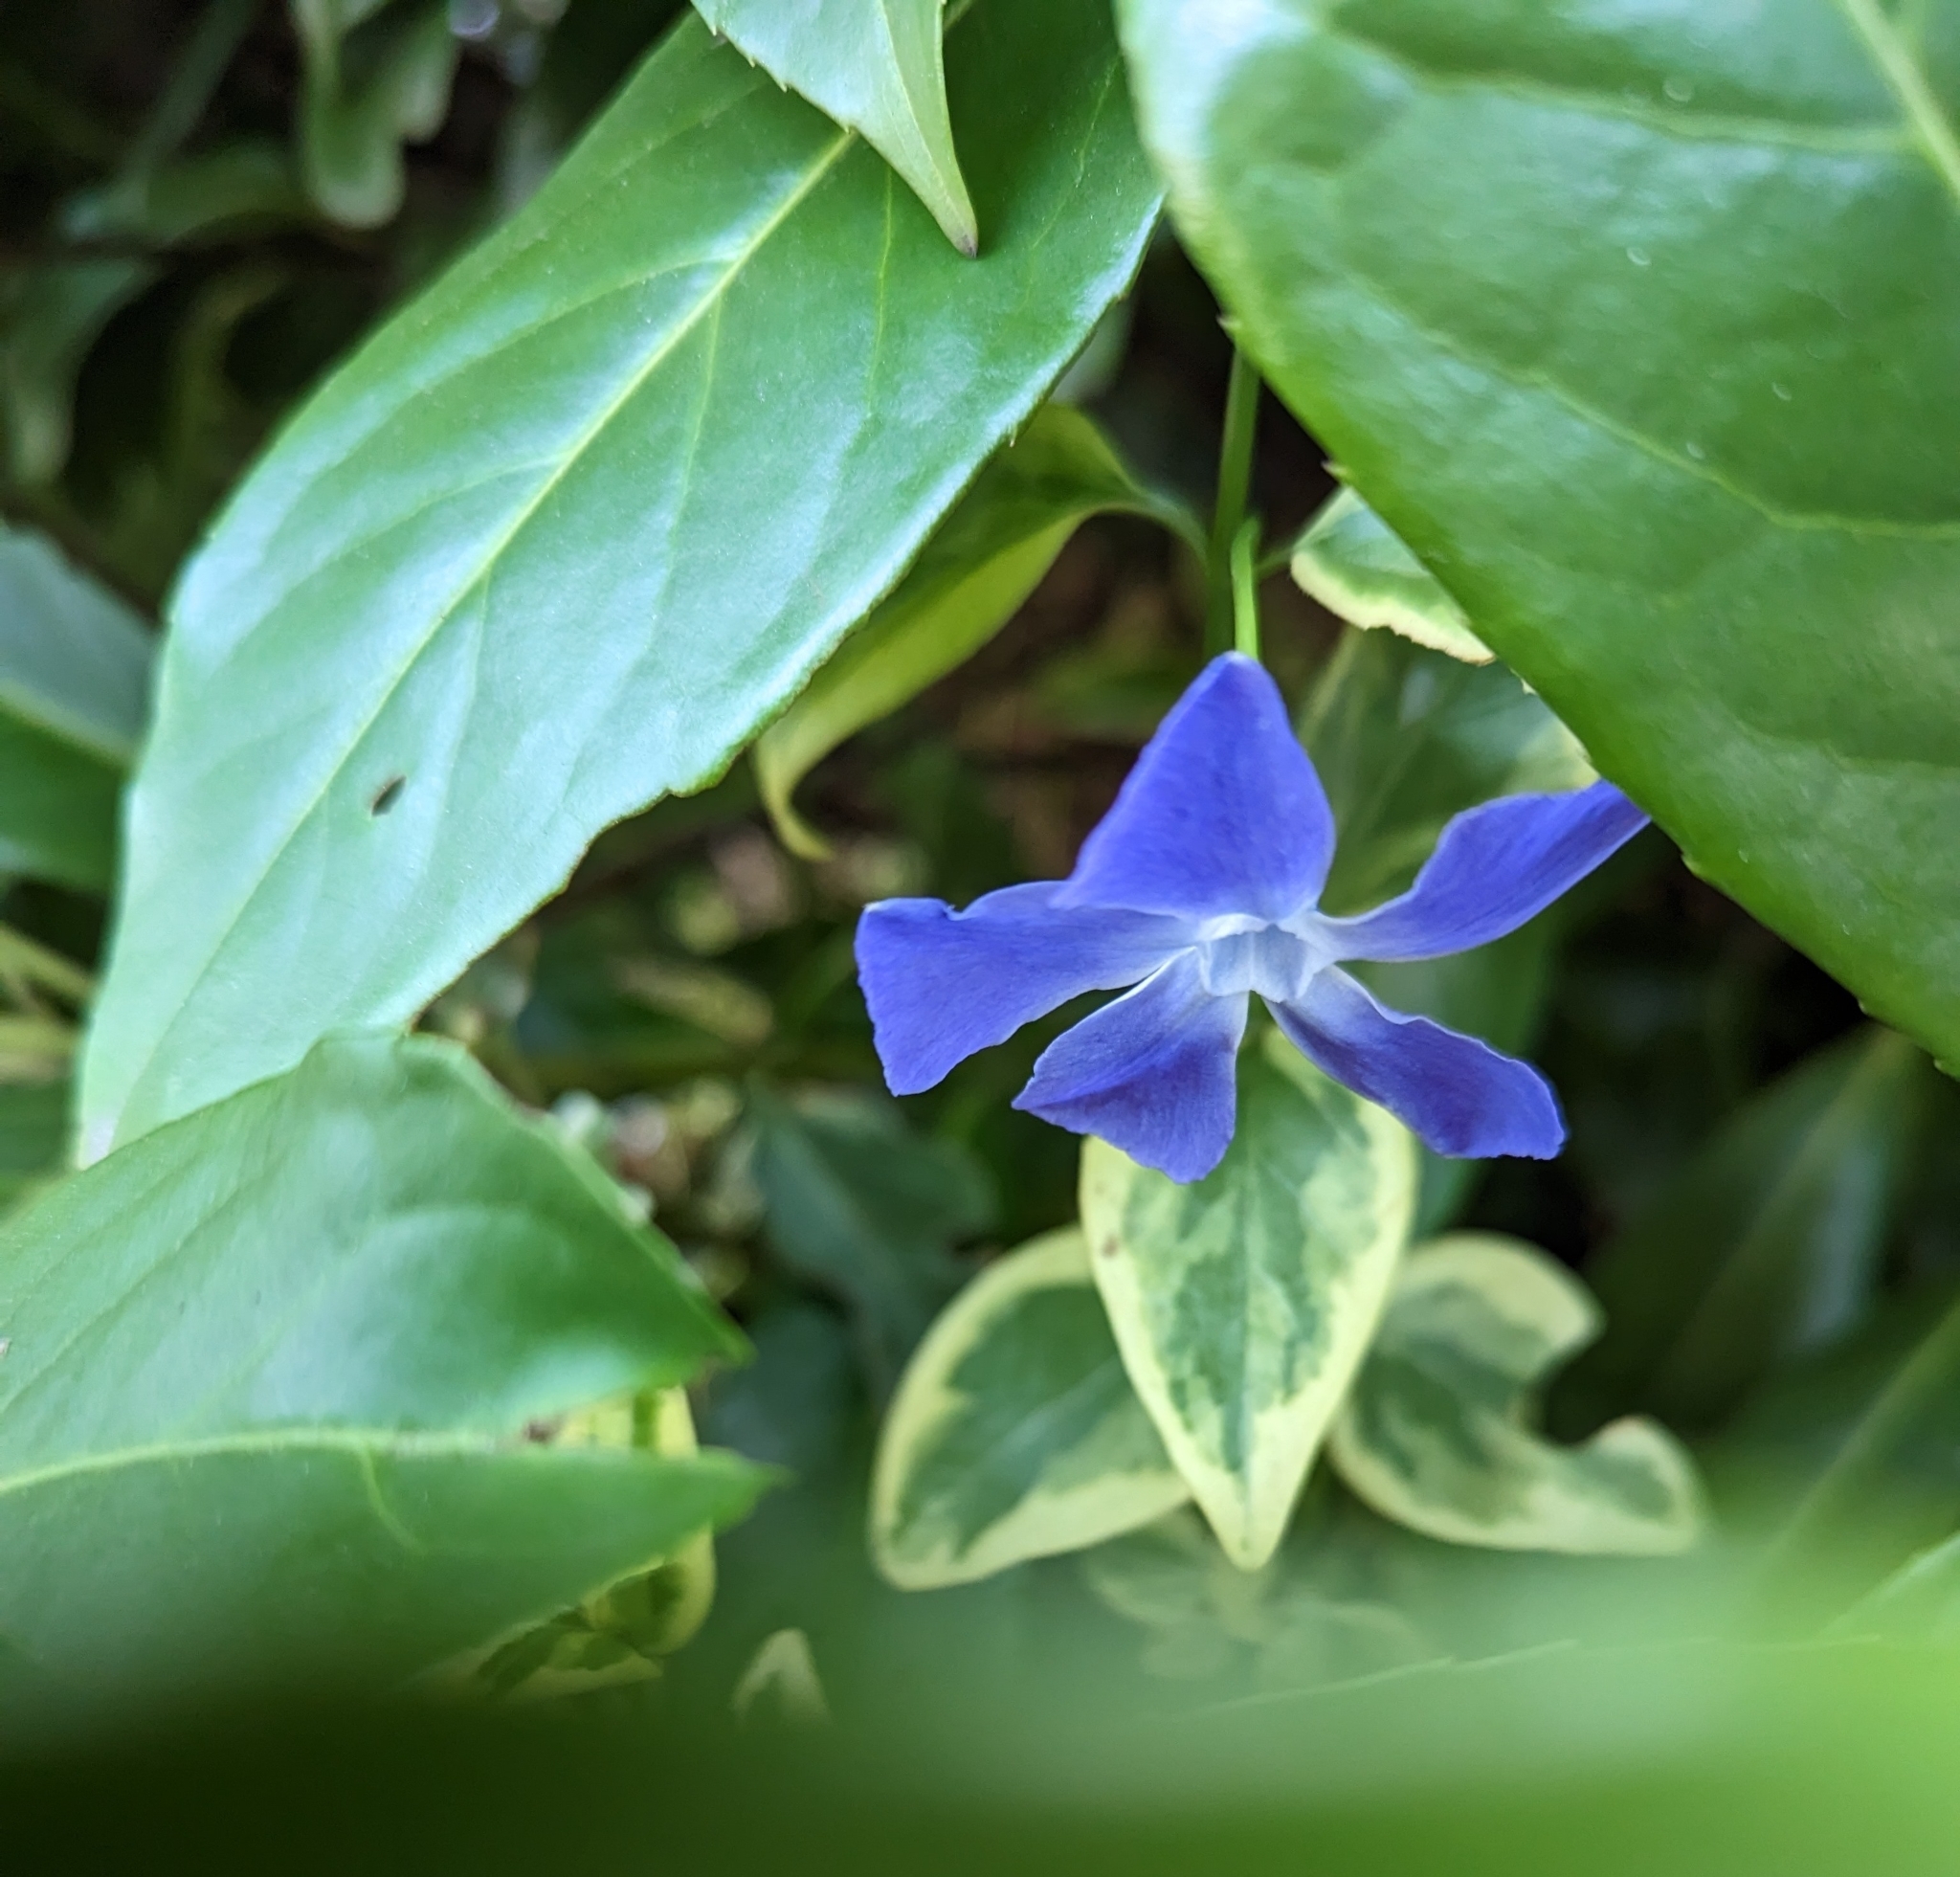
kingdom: Plantae
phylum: Tracheophyta
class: Magnoliopsida
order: Gentianales
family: Apocynaceae
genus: Vinca
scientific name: Vinca major
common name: Greater periwinkle
